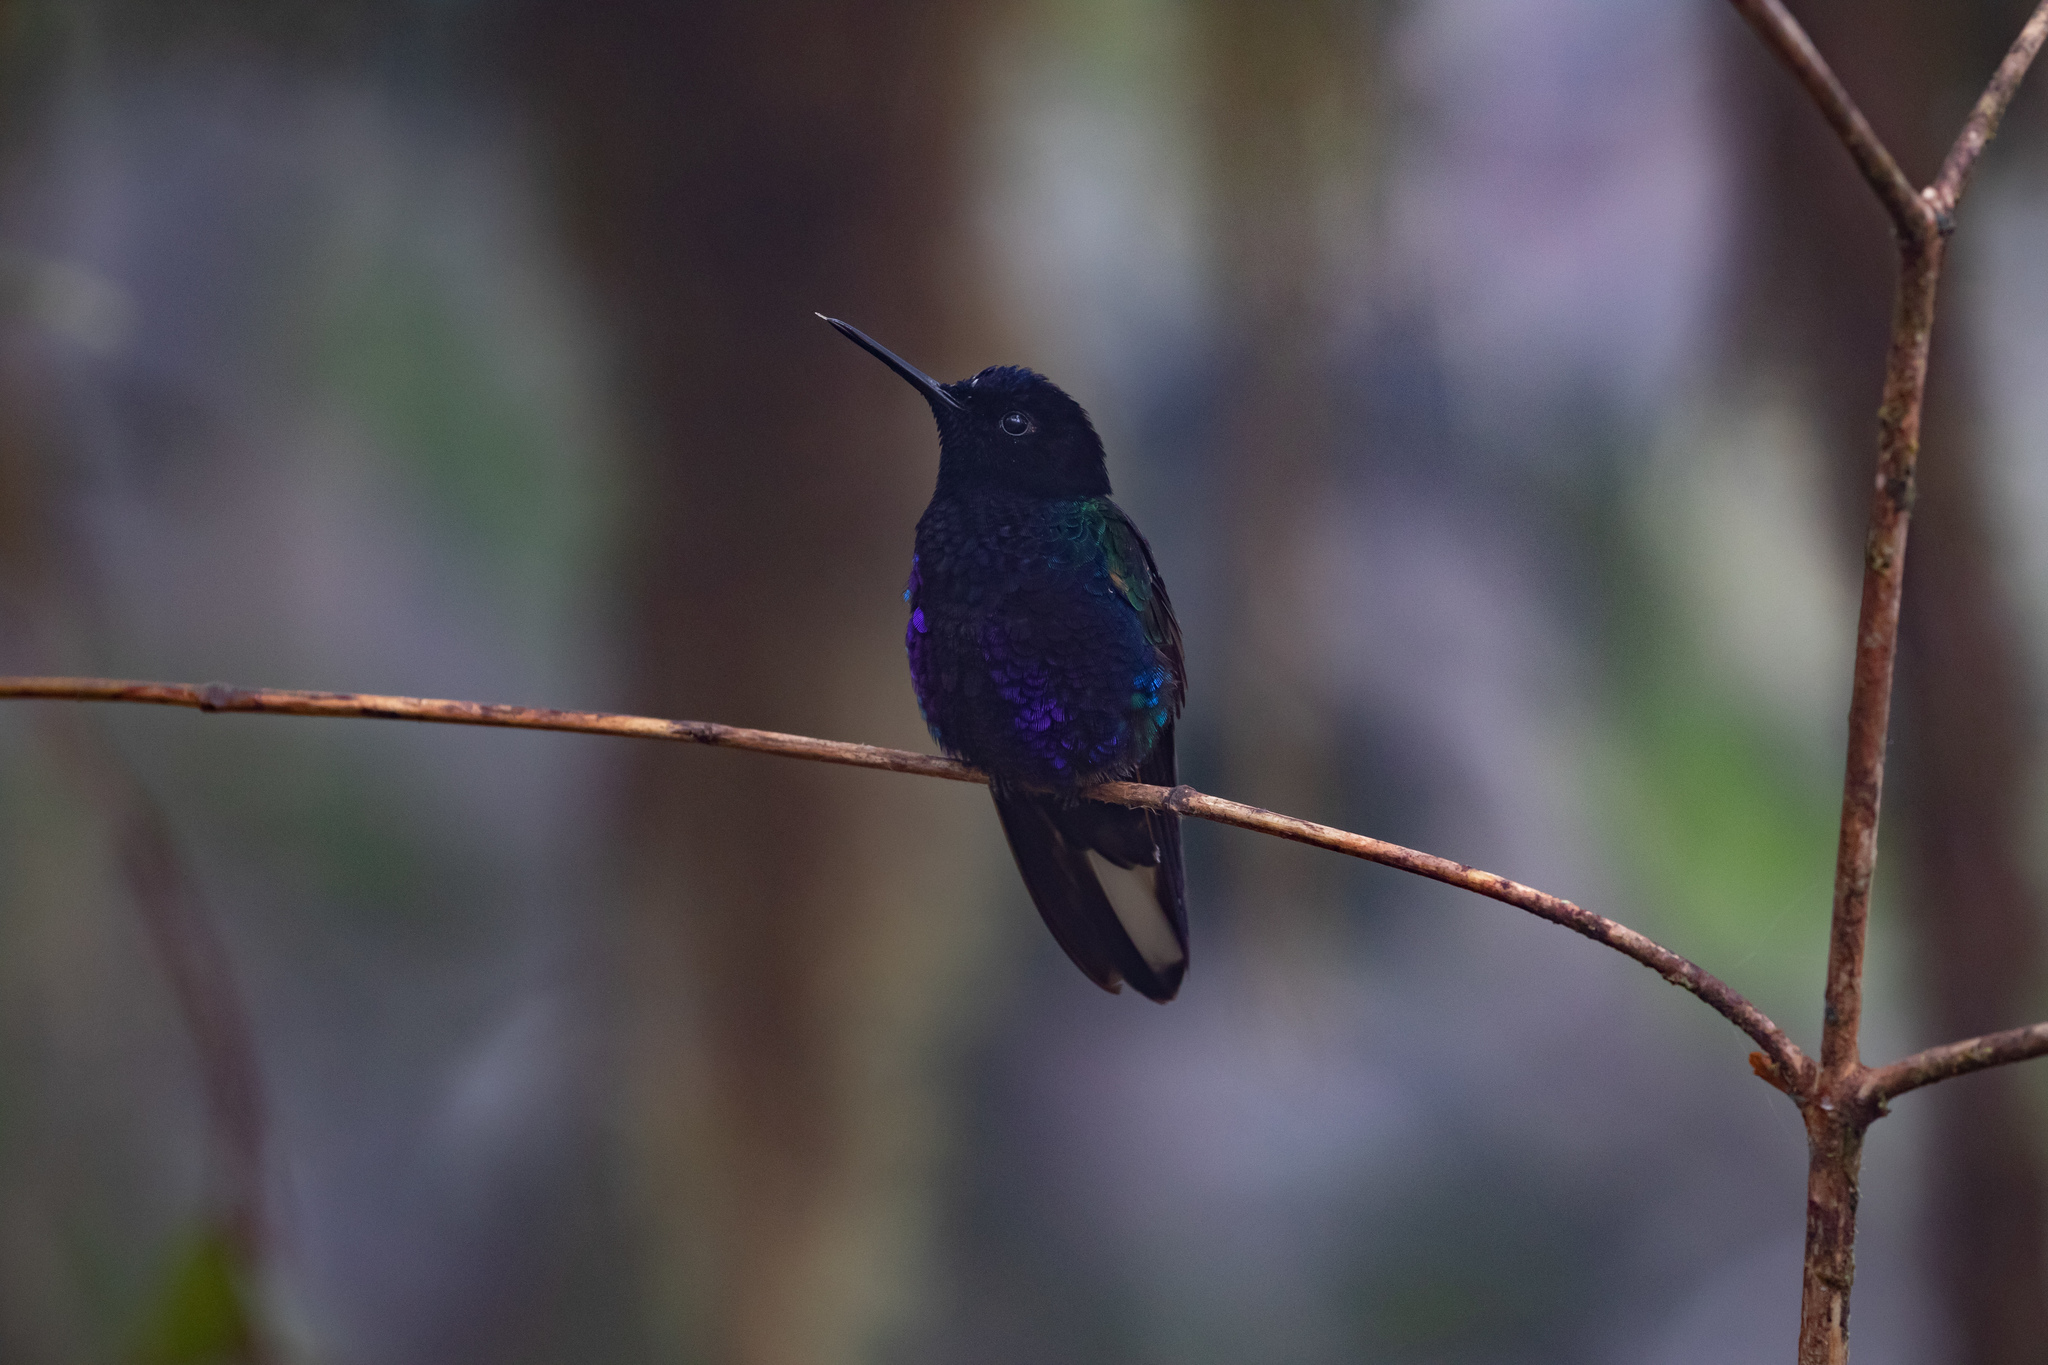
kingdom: Animalia
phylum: Chordata
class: Aves
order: Apodiformes
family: Trochilidae
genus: Boissonneaua
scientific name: Boissonneaua jardini
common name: Velvet-purple coronet
